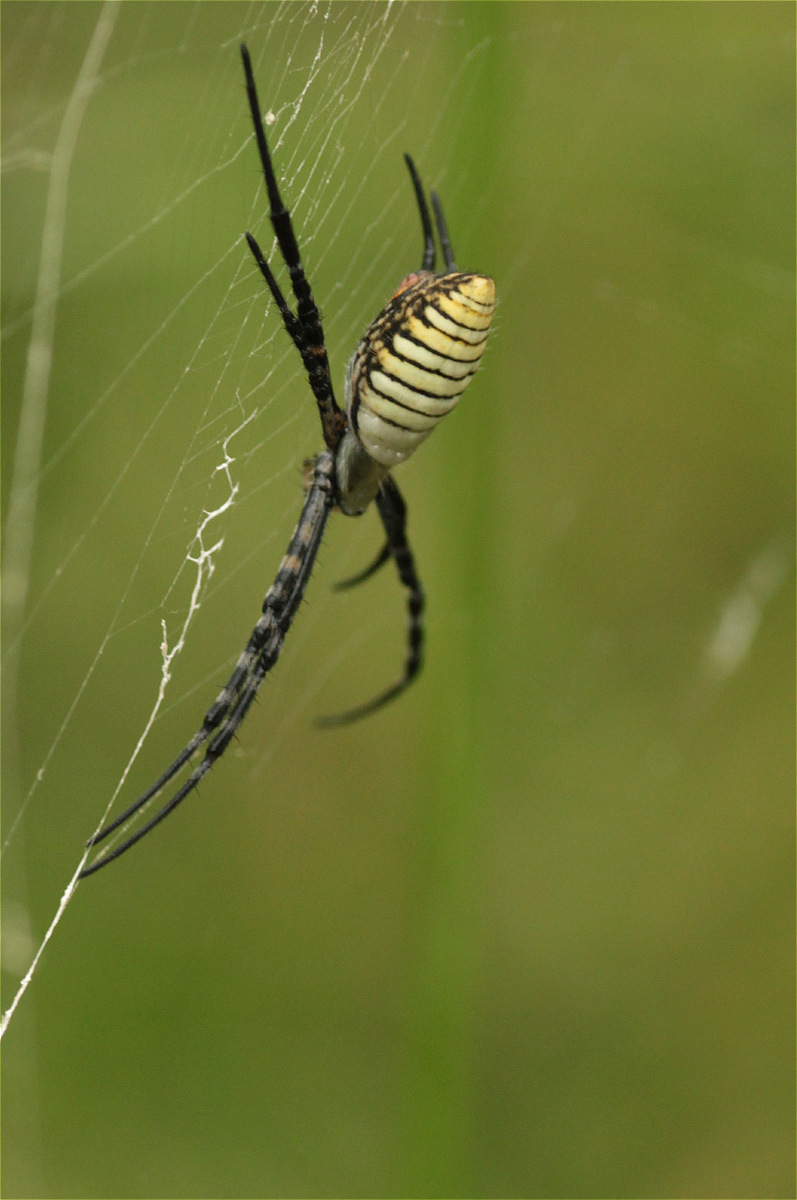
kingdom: Animalia
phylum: Arthropoda
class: Arachnida
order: Araneae
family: Araneidae
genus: Argiope
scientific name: Argiope trifasciata
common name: Banded garden spider
